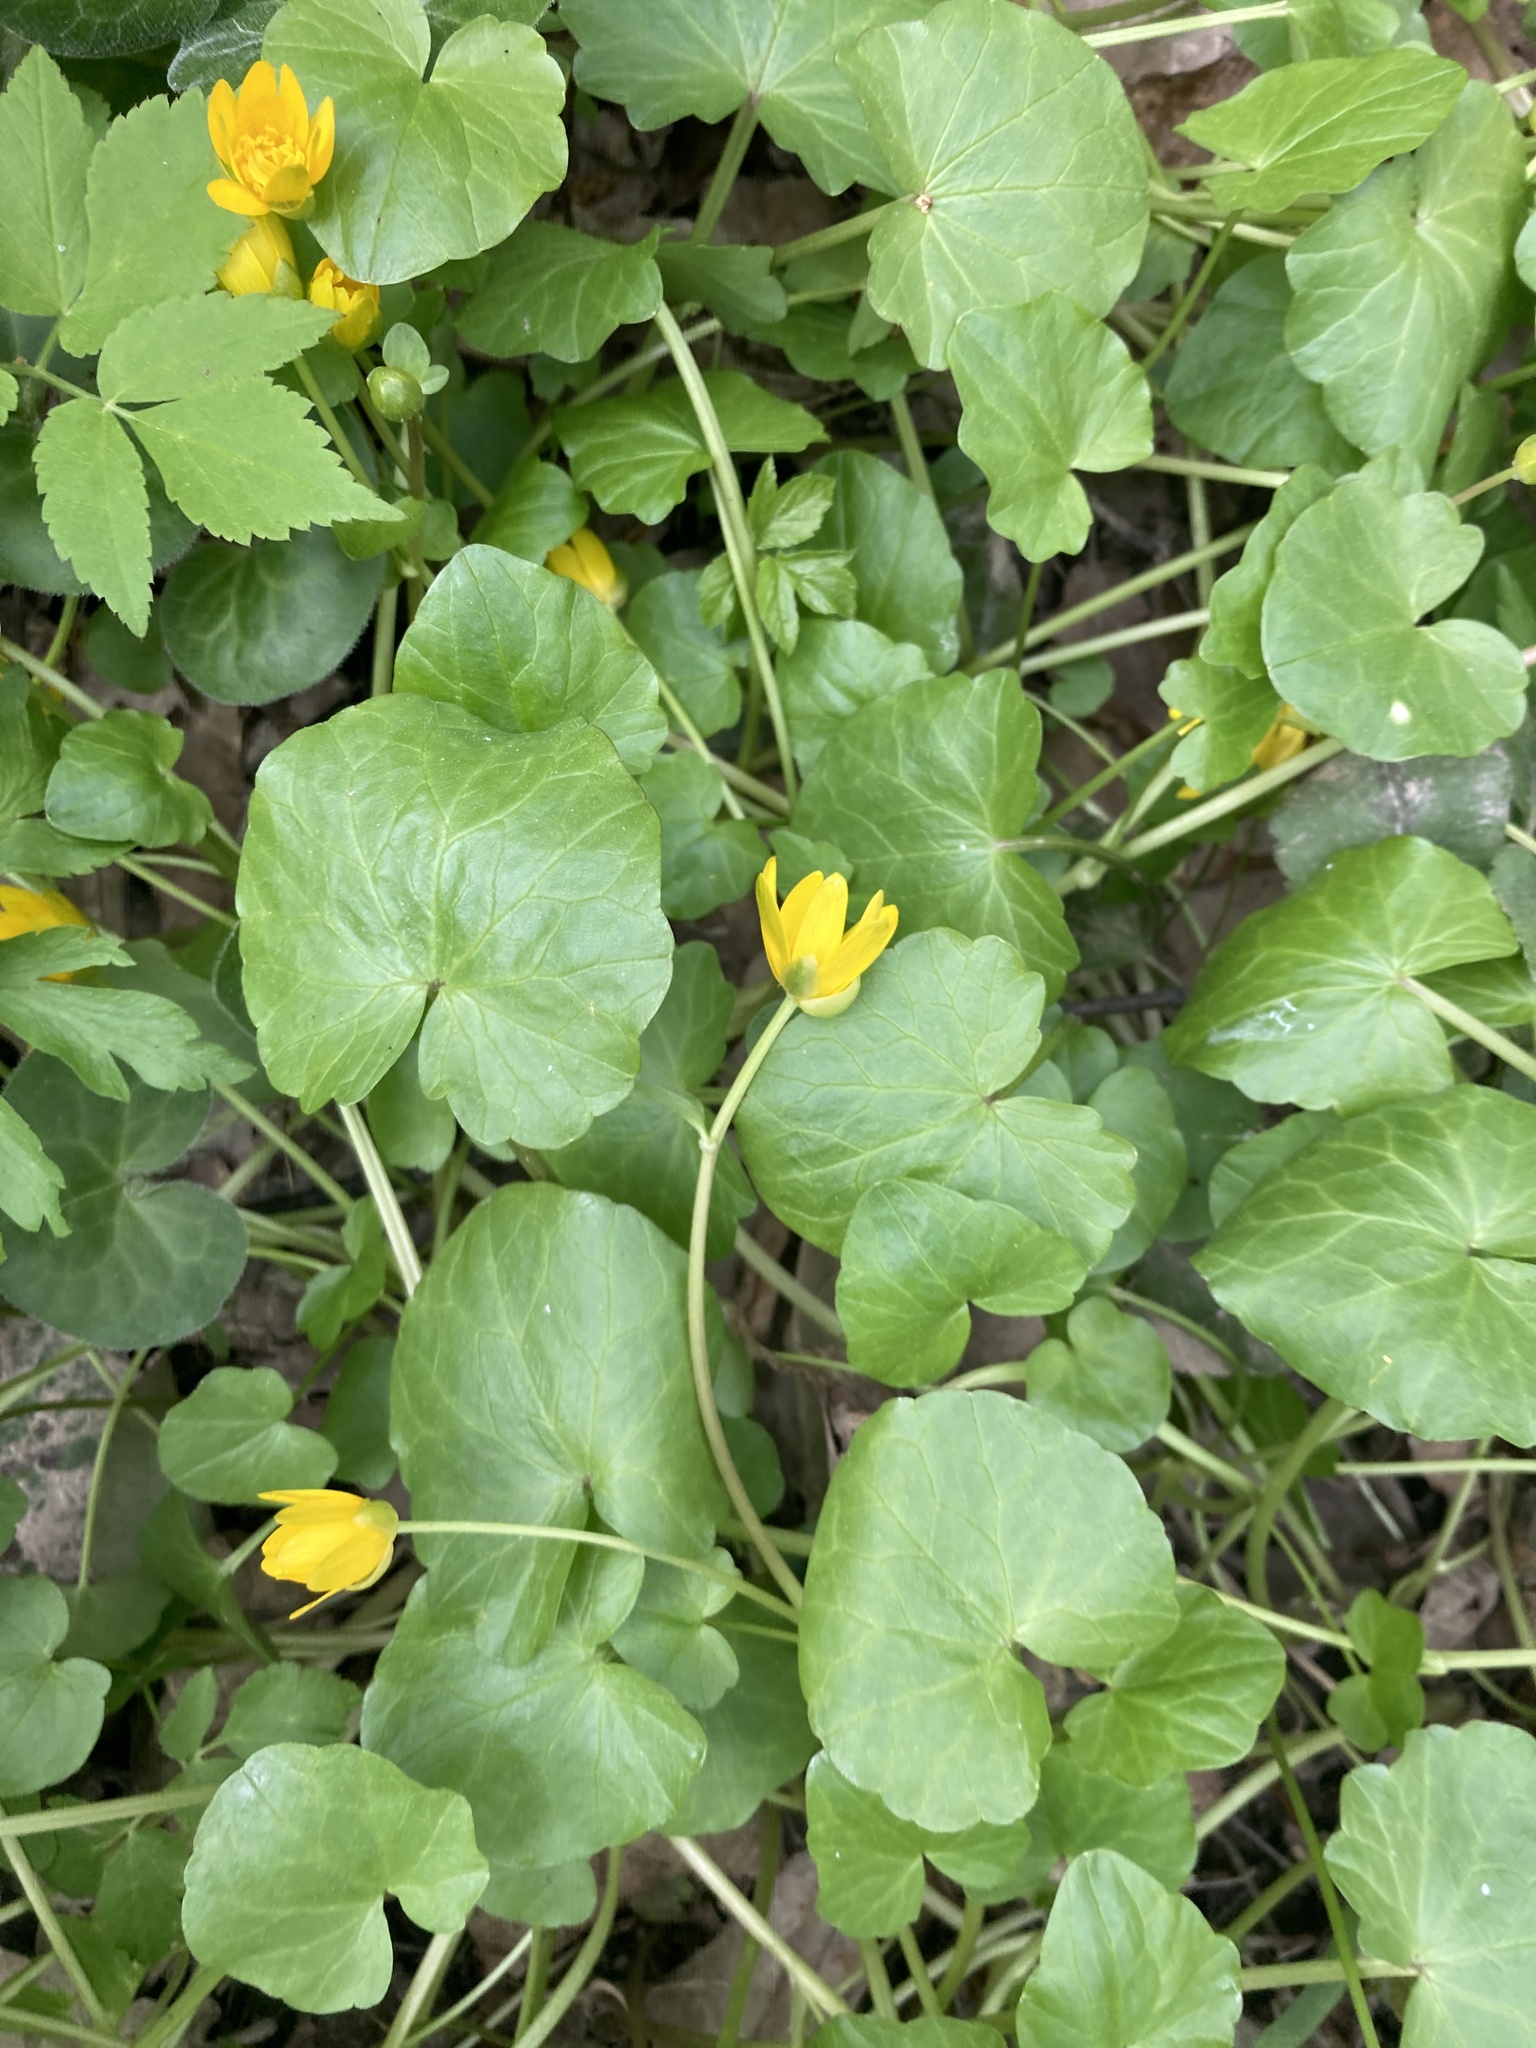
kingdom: Plantae
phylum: Tracheophyta
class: Magnoliopsida
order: Ranunculales
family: Ranunculaceae
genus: Ficaria
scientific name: Ficaria verna
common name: Lesser celandine
